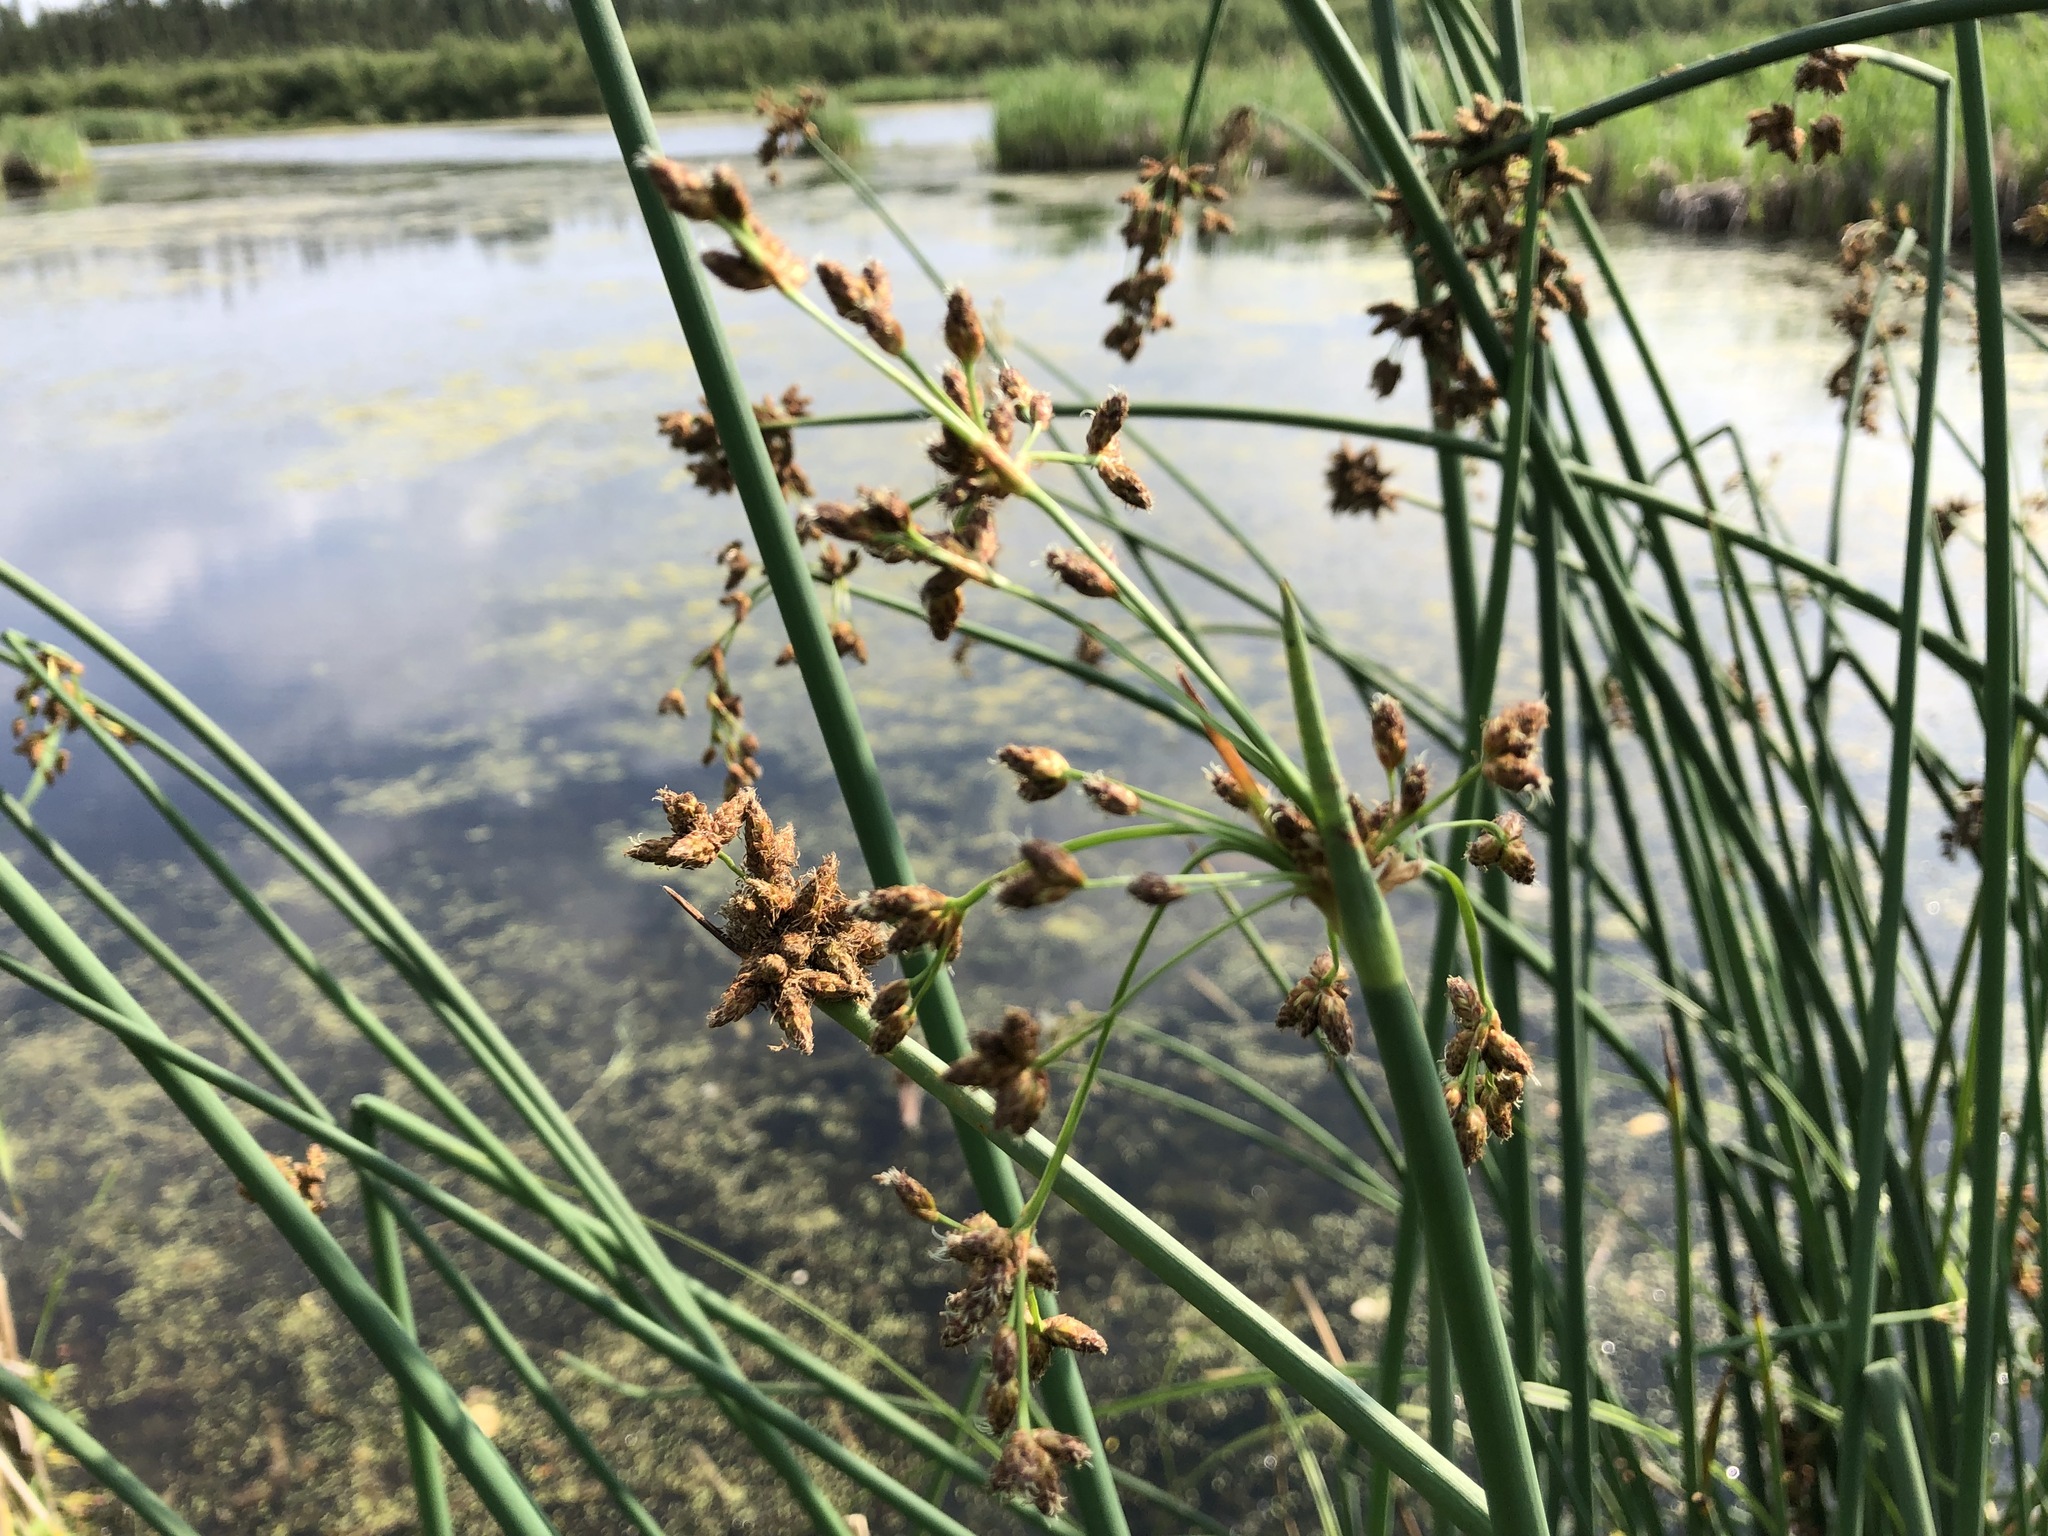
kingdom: Plantae
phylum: Tracheophyta
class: Liliopsida
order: Poales
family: Cyperaceae
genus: Schoenoplectus
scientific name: Schoenoplectus tabernaemontani
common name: Grey club-rush
